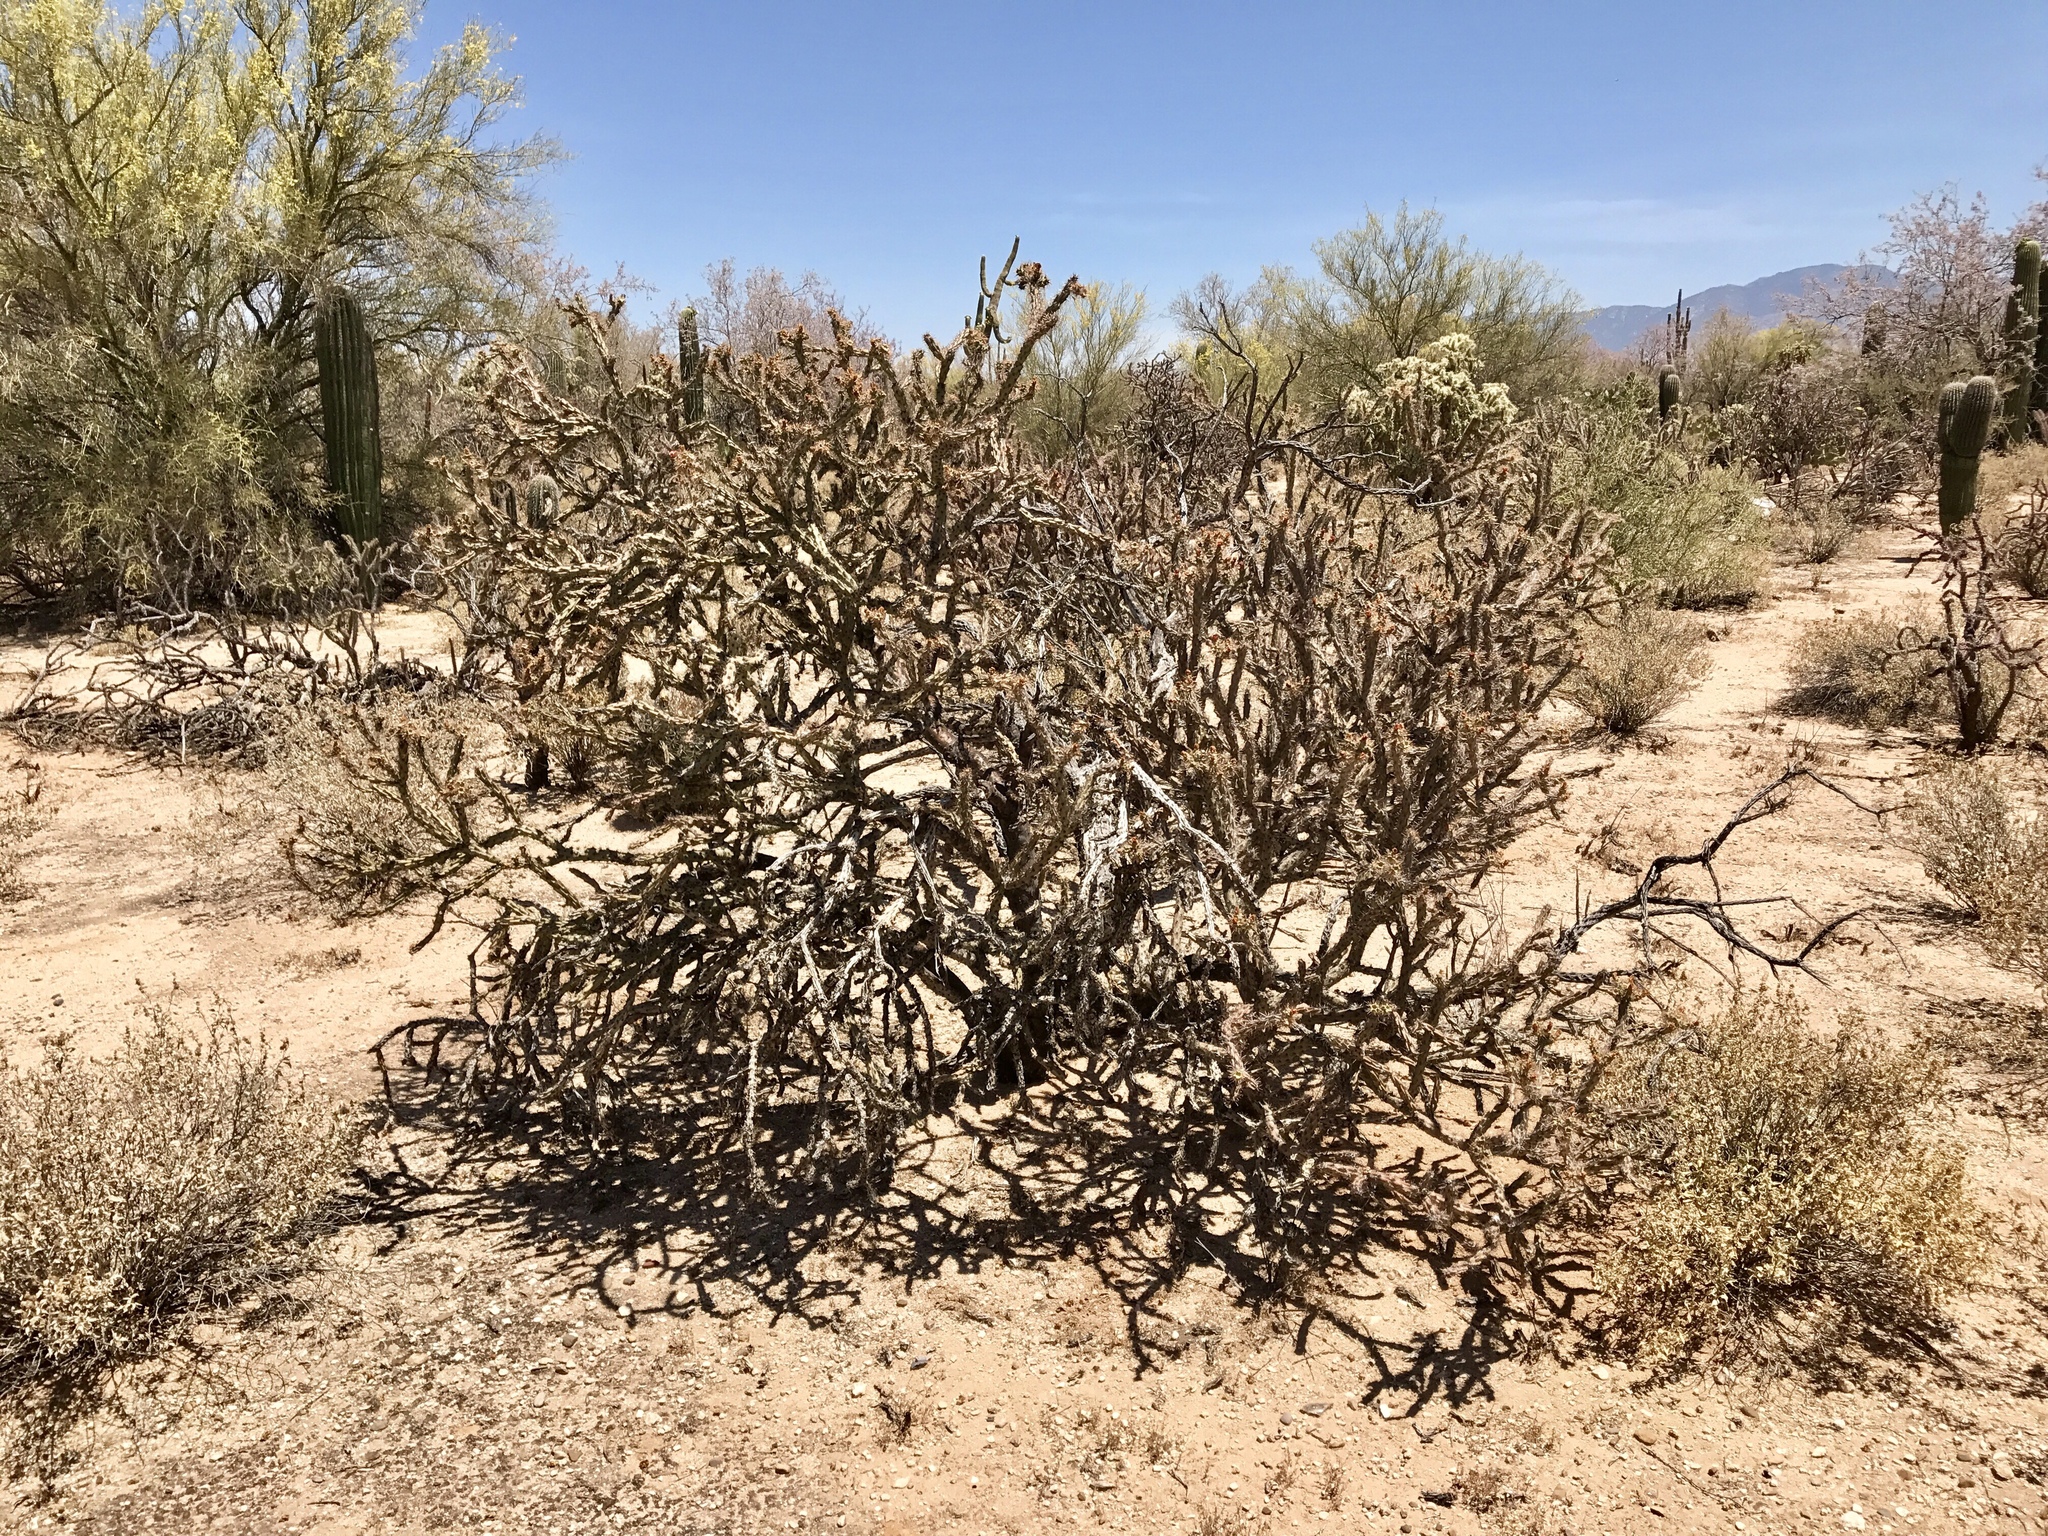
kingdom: Plantae
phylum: Tracheophyta
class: Magnoliopsida
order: Caryophyllales
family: Cactaceae
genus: Cylindropuntia
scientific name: Cylindropuntia thurberi
